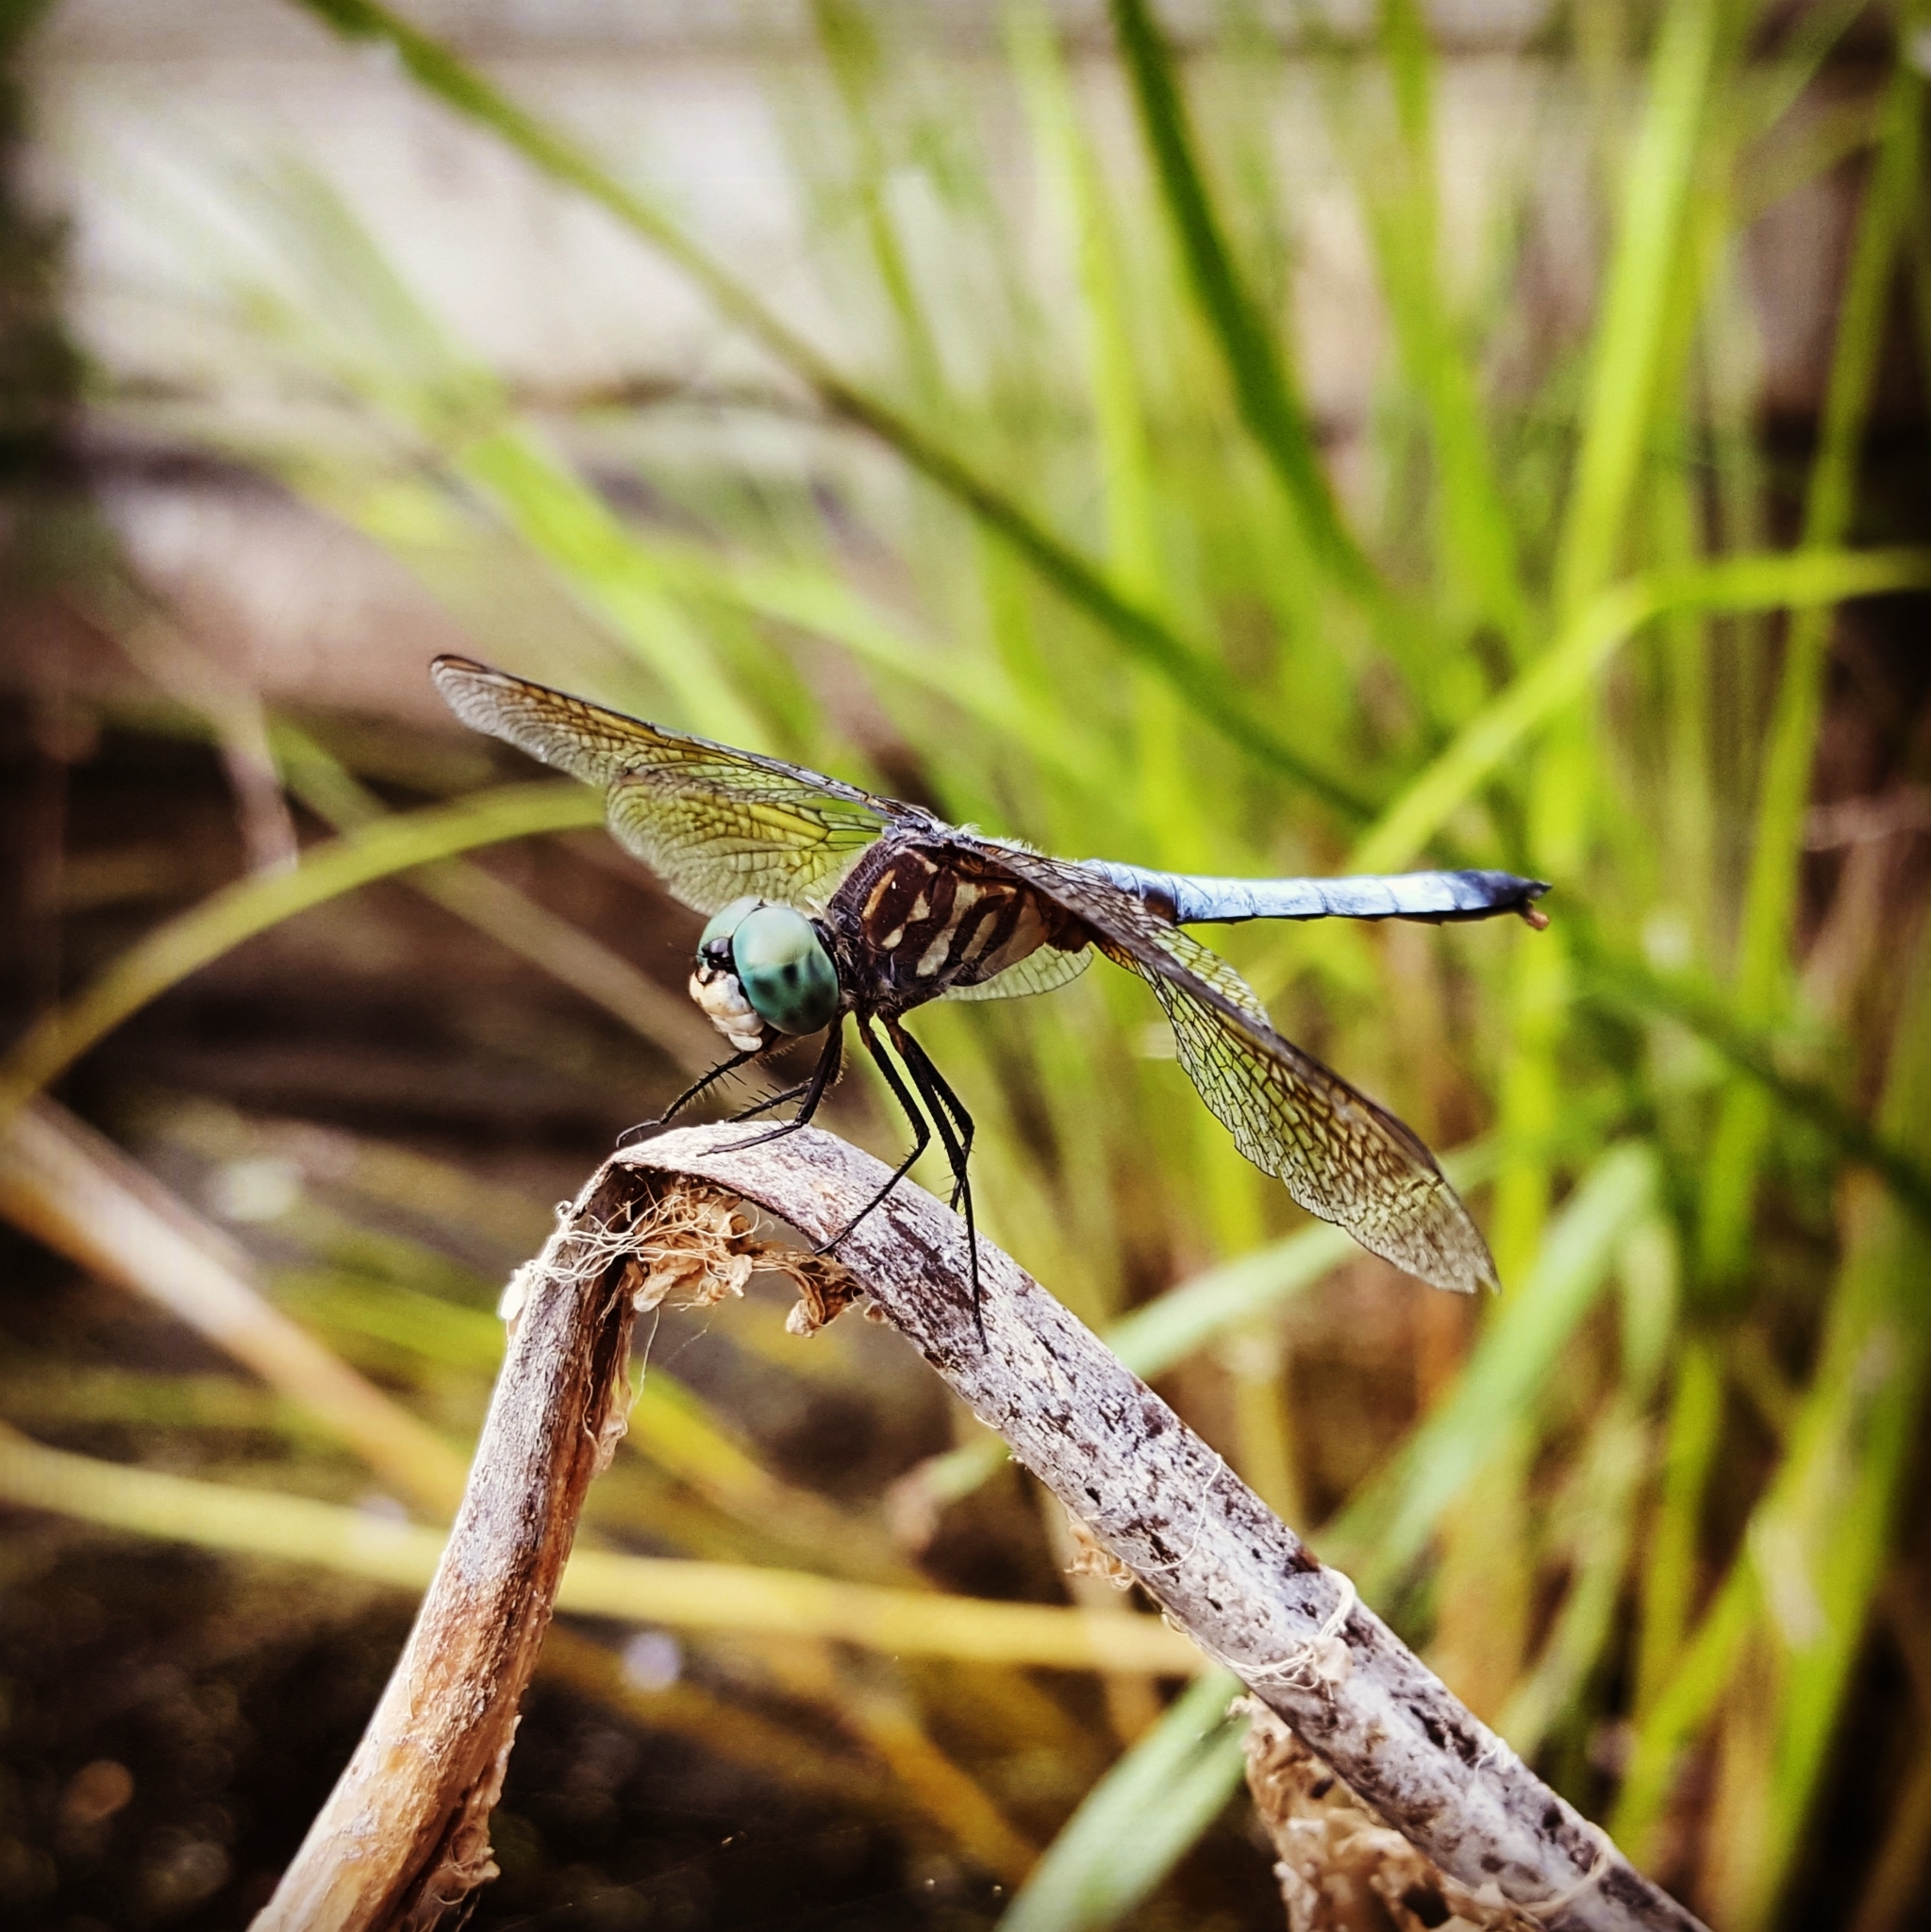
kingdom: Animalia
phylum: Arthropoda
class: Insecta
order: Odonata
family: Libellulidae
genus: Pachydiplax
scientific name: Pachydiplax longipennis
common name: Blue dasher
